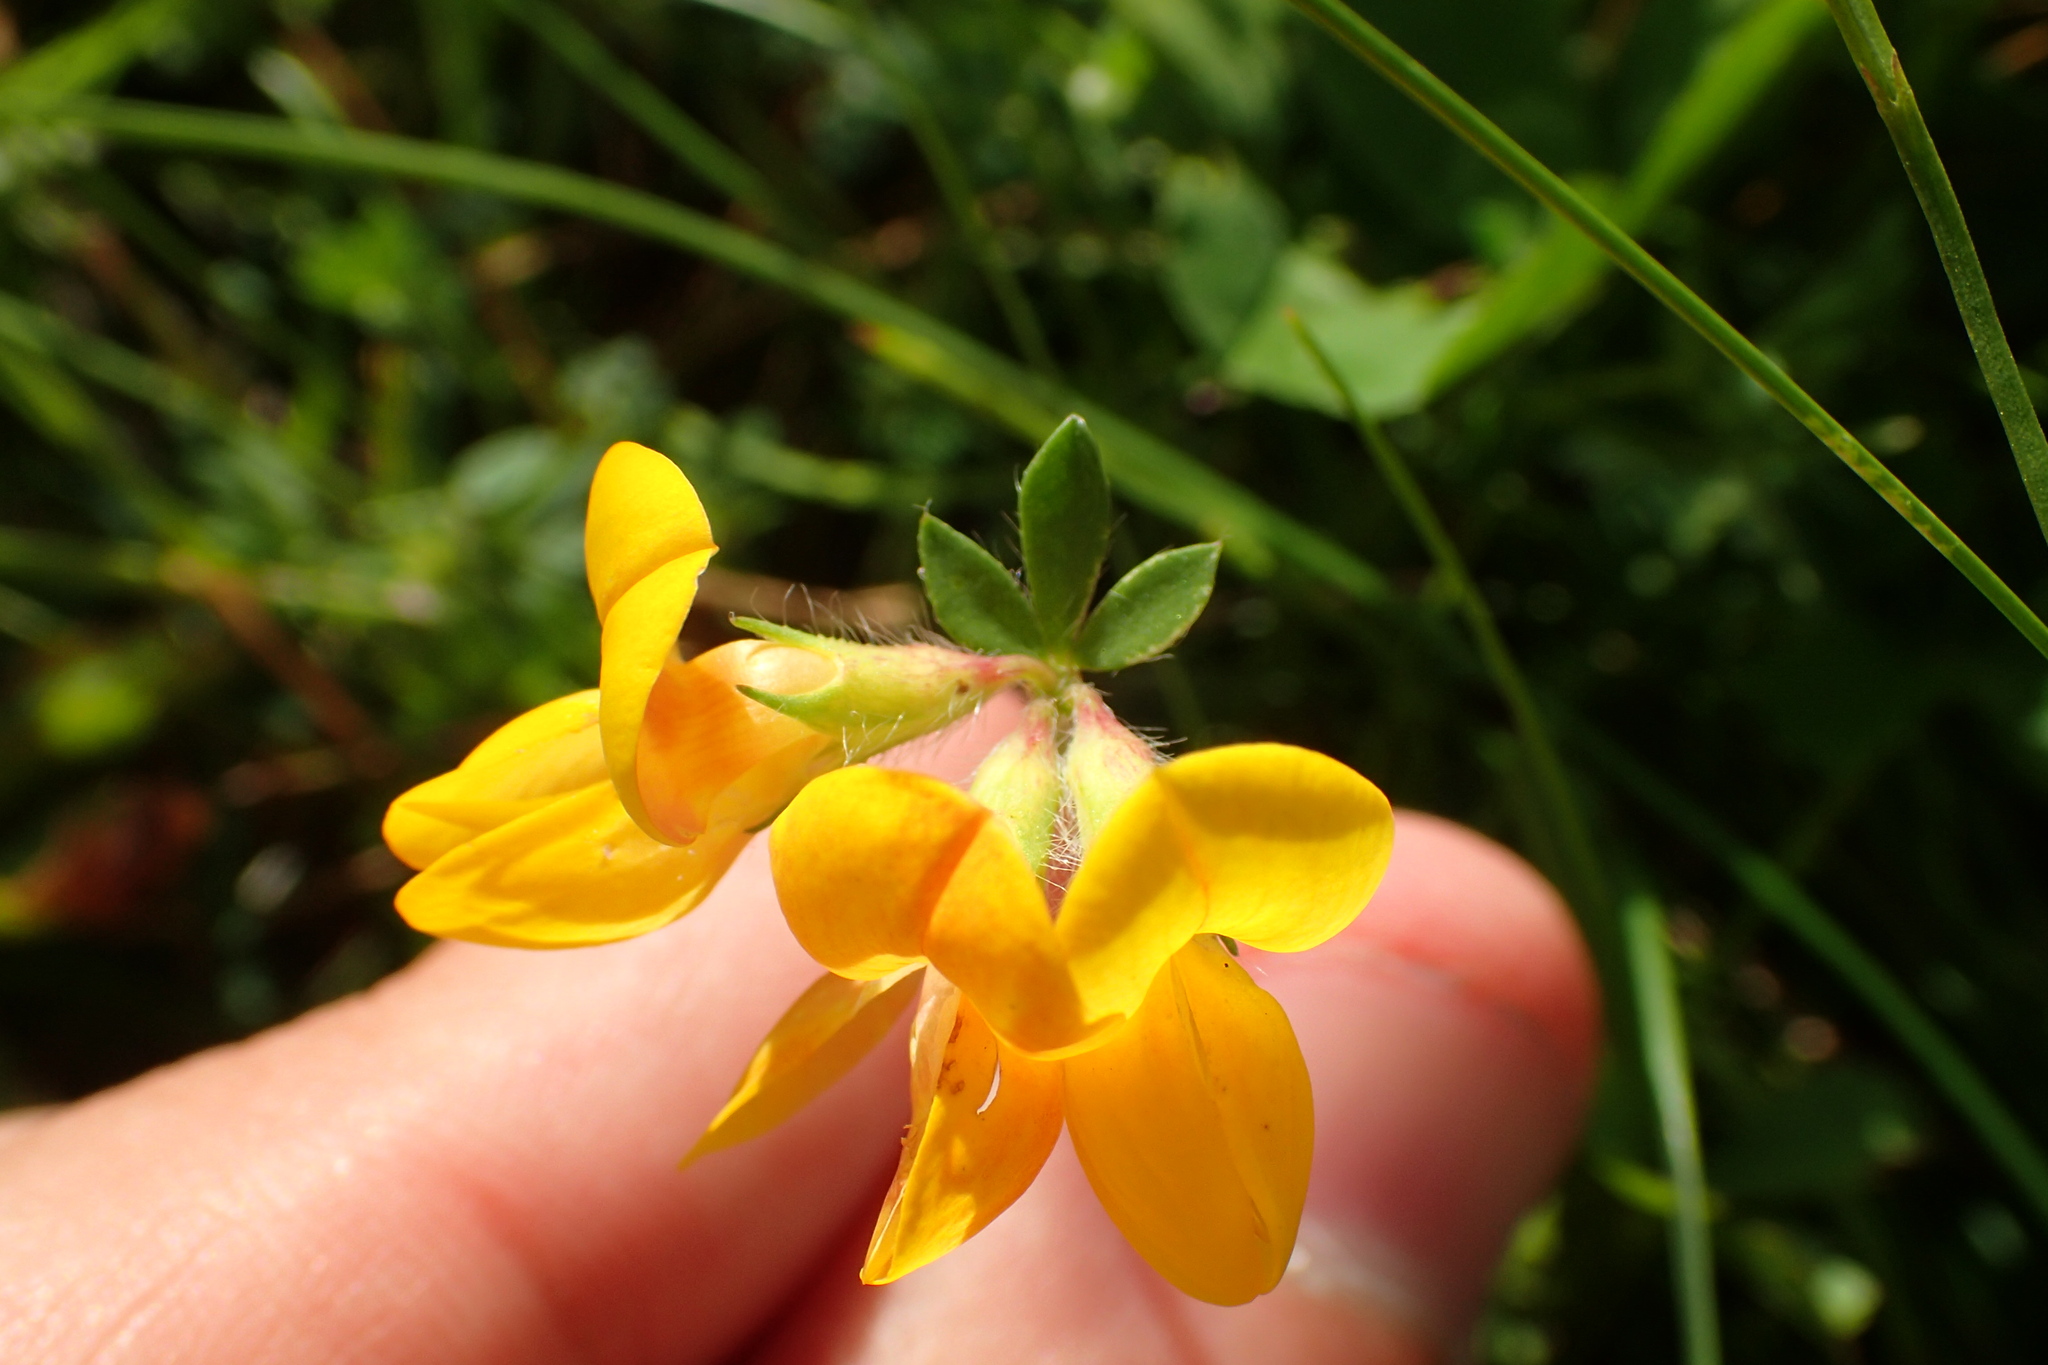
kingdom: Plantae
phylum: Tracheophyta
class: Magnoliopsida
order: Fabales
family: Fabaceae
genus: Lotus
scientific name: Lotus corniculatus
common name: Common bird's-foot-trefoil
